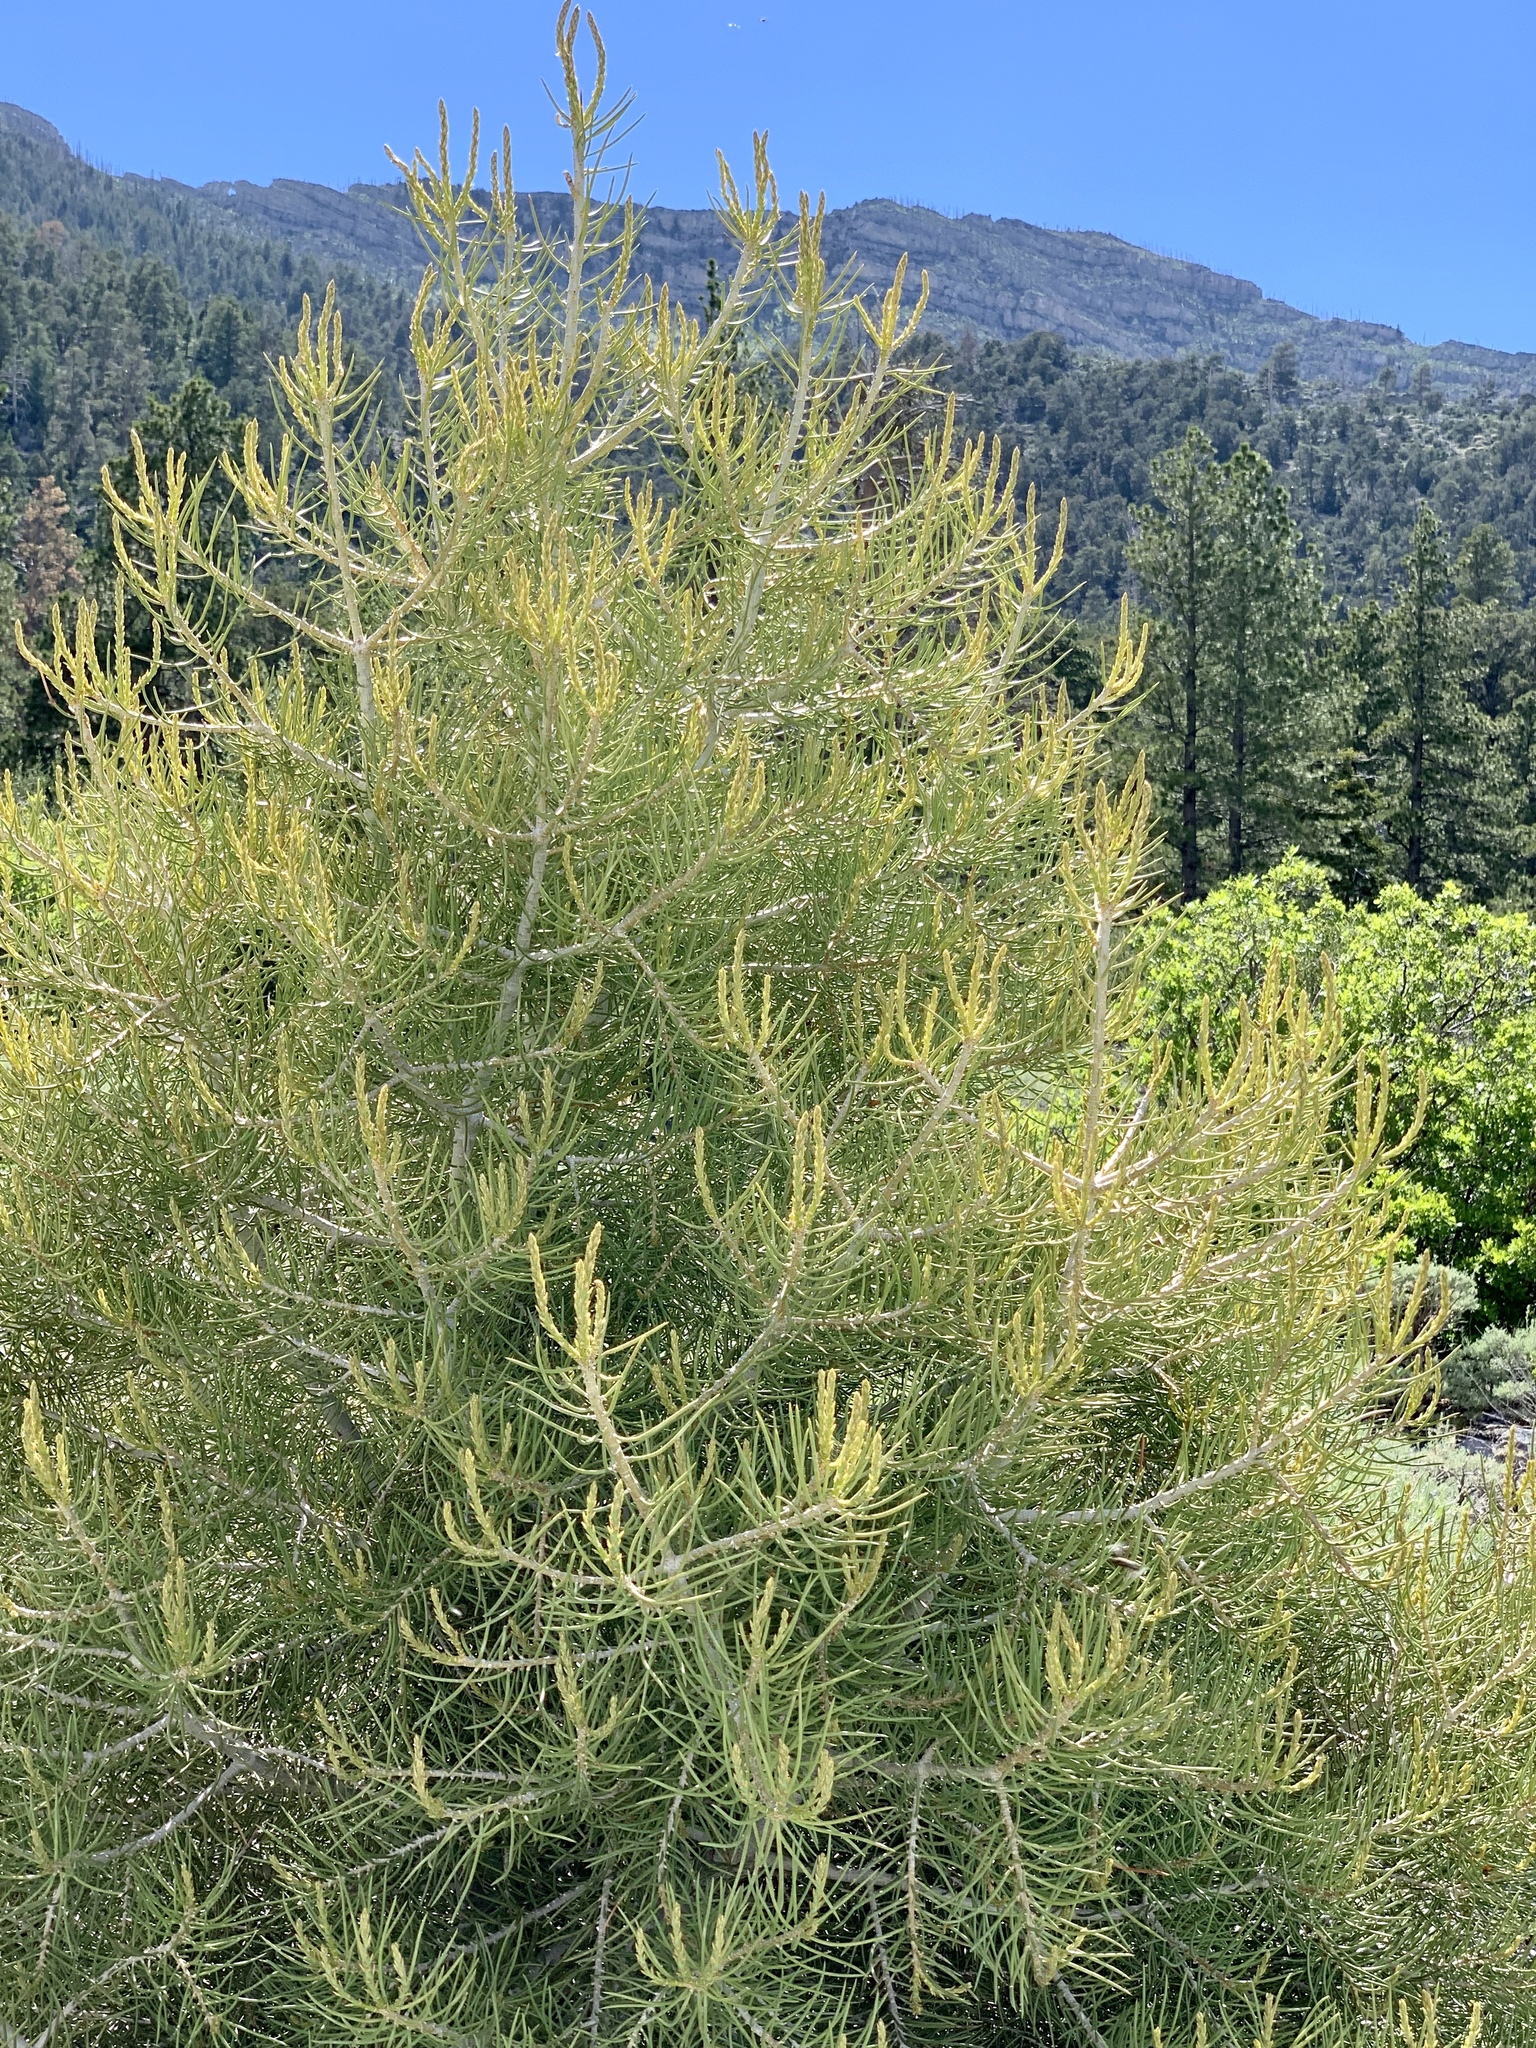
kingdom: Plantae
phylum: Tracheophyta
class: Pinopsida
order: Pinales
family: Pinaceae
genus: Pinus
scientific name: Pinus monophylla
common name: One-leaved nut pine
